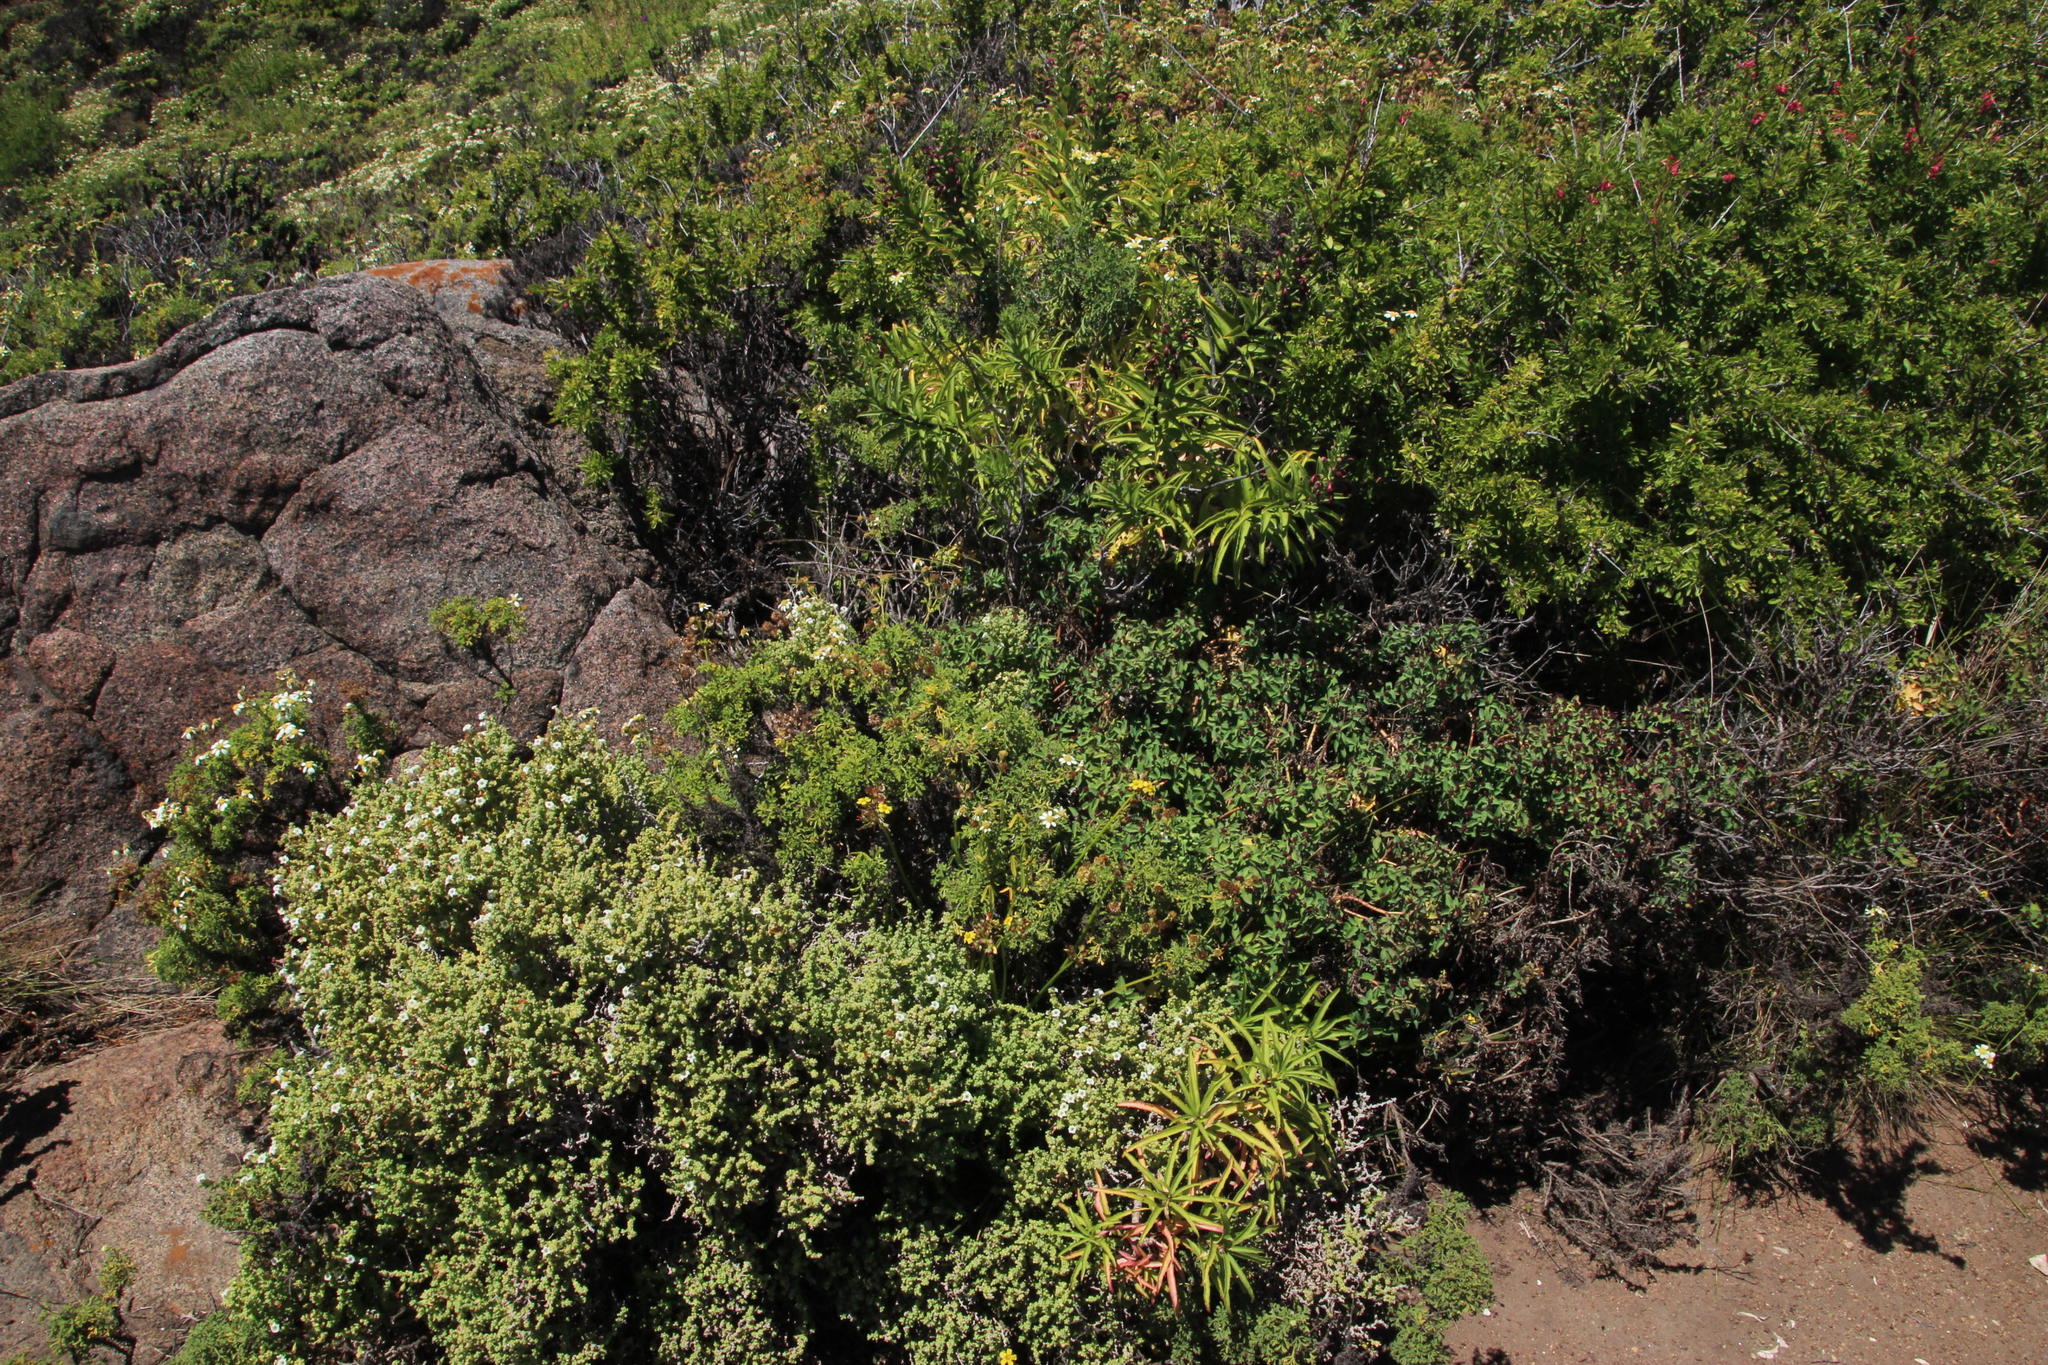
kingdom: Plantae
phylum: Tracheophyta
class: Magnoliopsida
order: Asterales
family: Campanulaceae
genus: Lobelia
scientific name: Lobelia polyphylla
